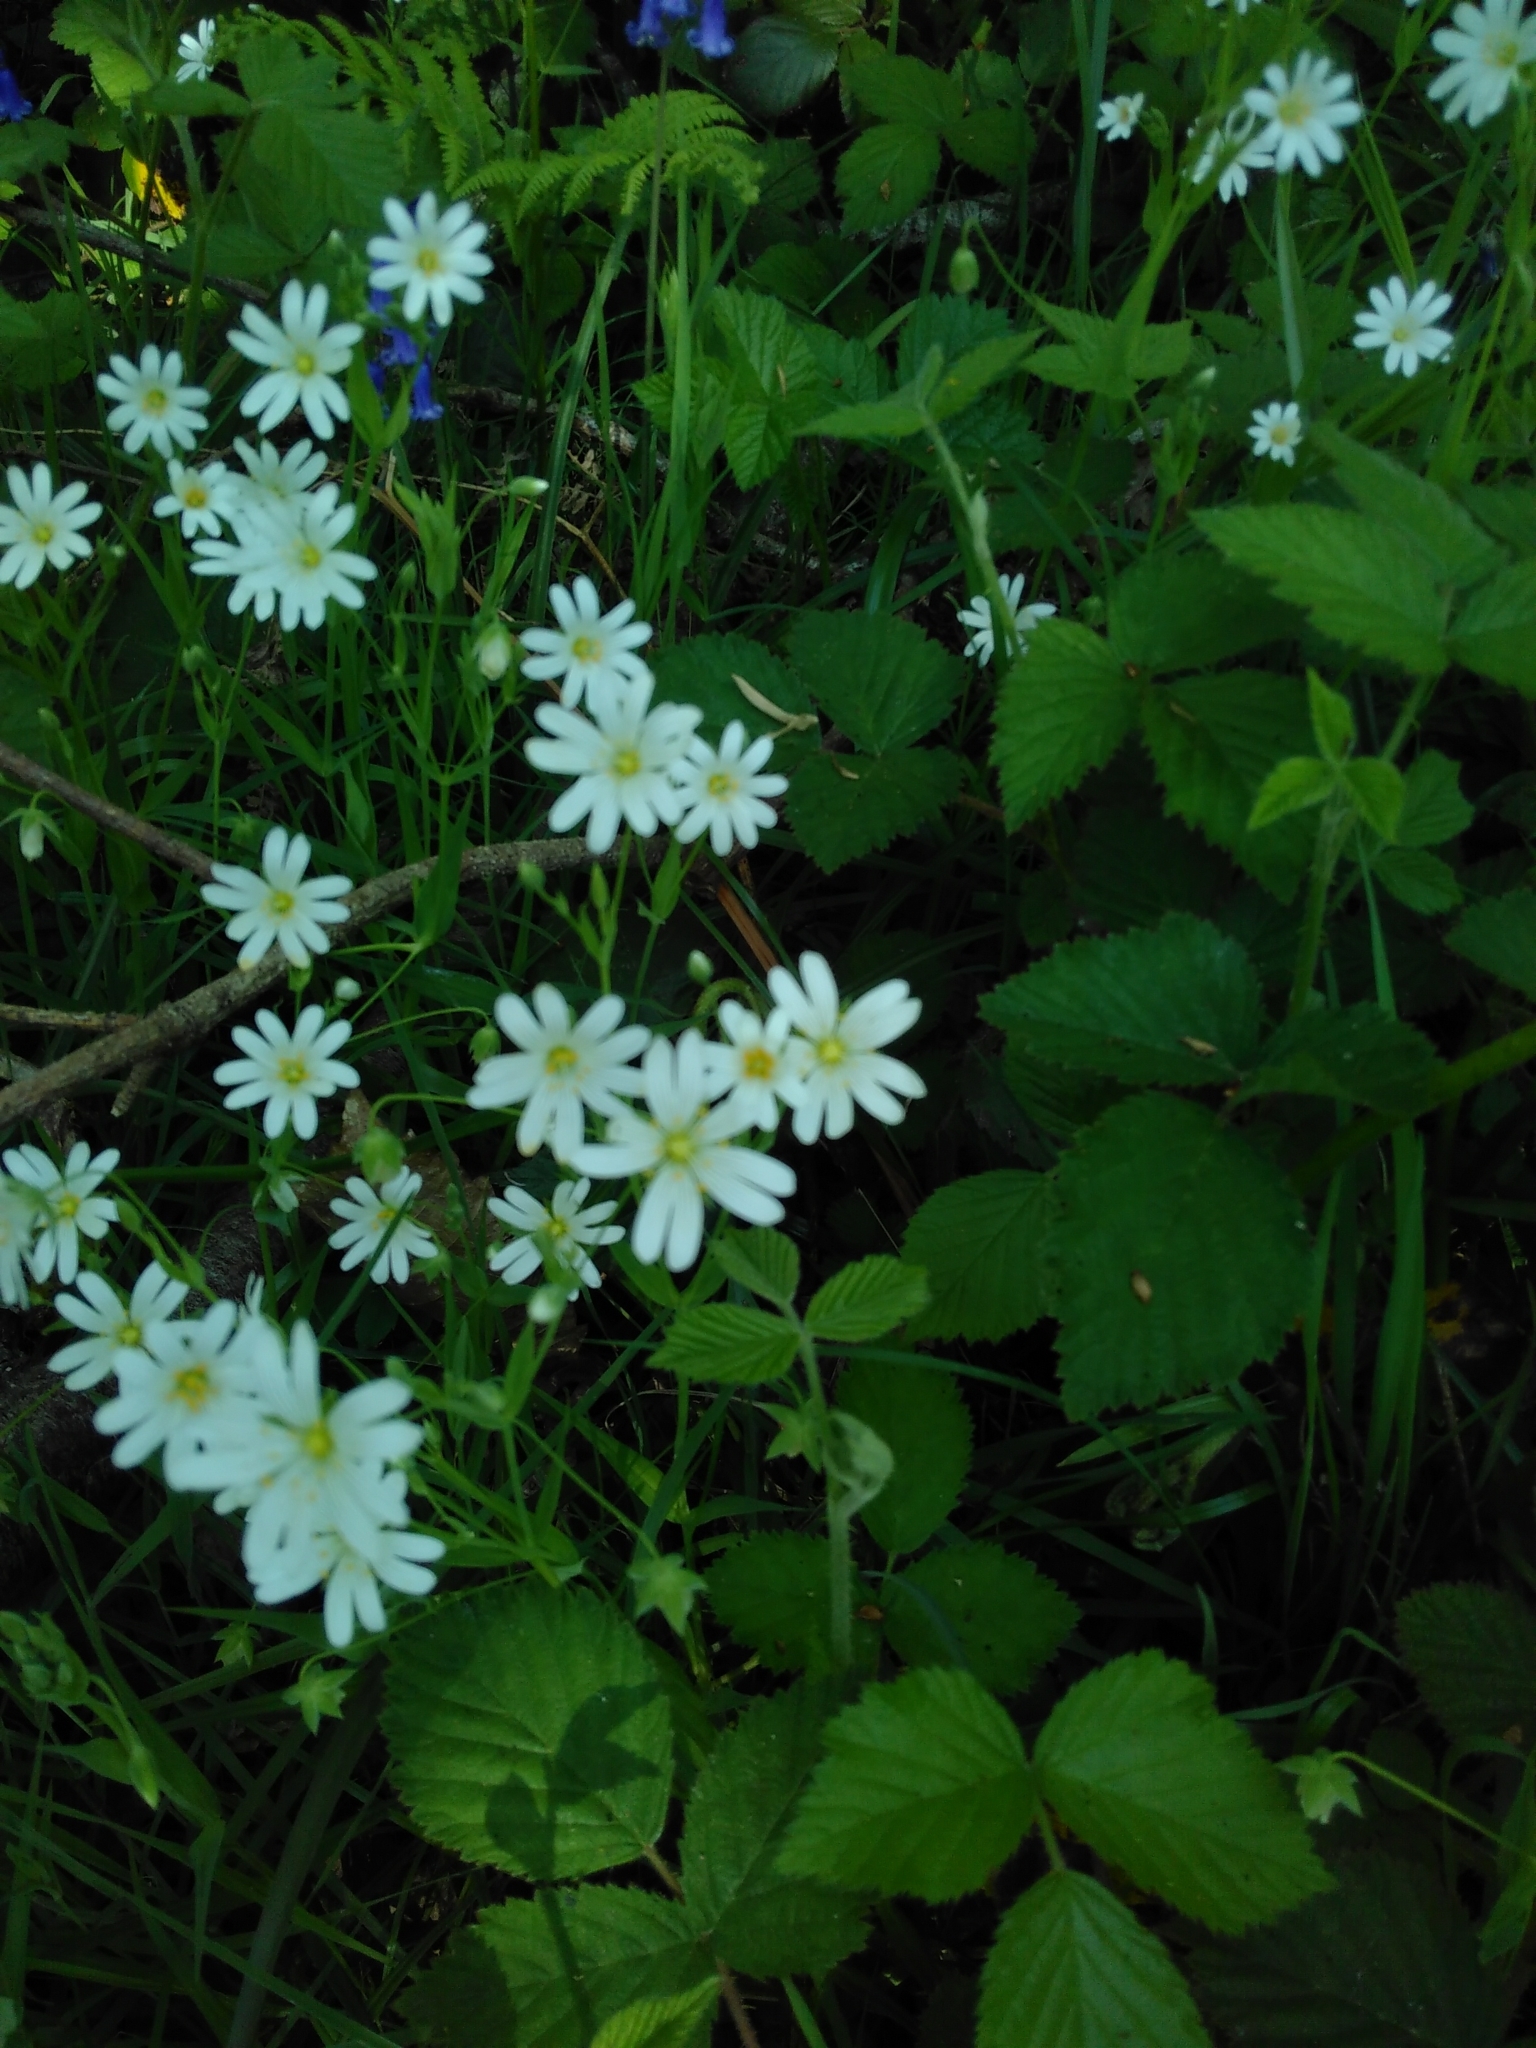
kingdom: Plantae
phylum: Tracheophyta
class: Magnoliopsida
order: Caryophyllales
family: Caryophyllaceae
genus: Rabelera
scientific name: Rabelera holostea
